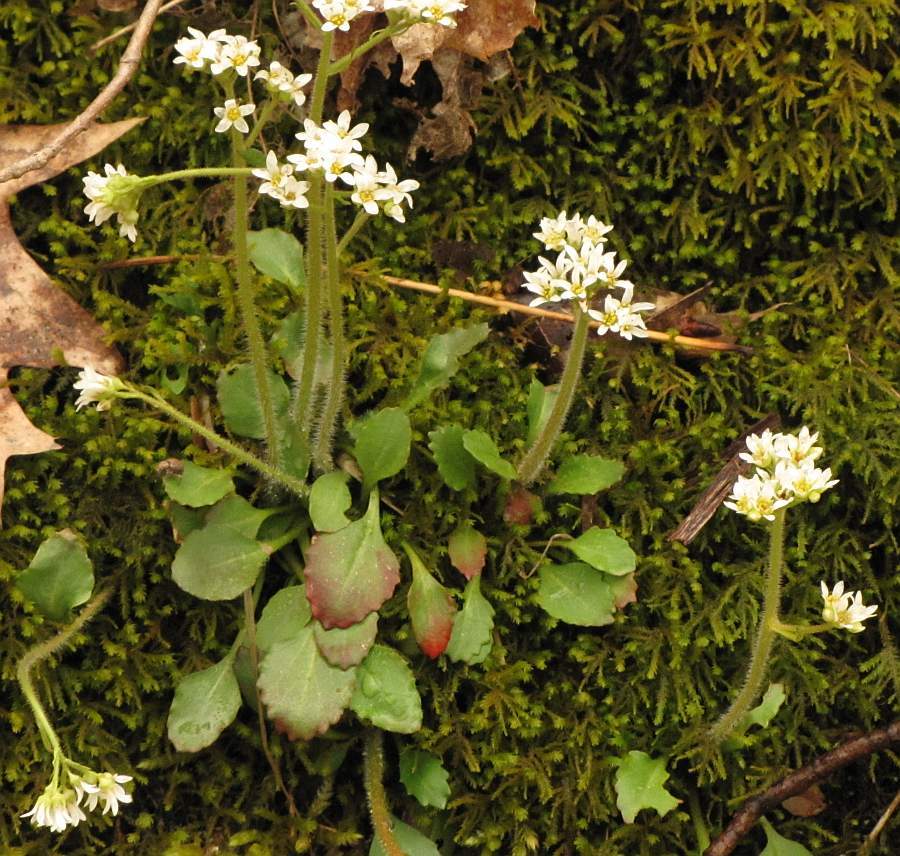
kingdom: Plantae
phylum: Tracheophyta
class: Magnoliopsida
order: Saxifragales
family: Saxifragaceae
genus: Micranthes
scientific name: Micranthes virginiensis
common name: Early saxifrage
